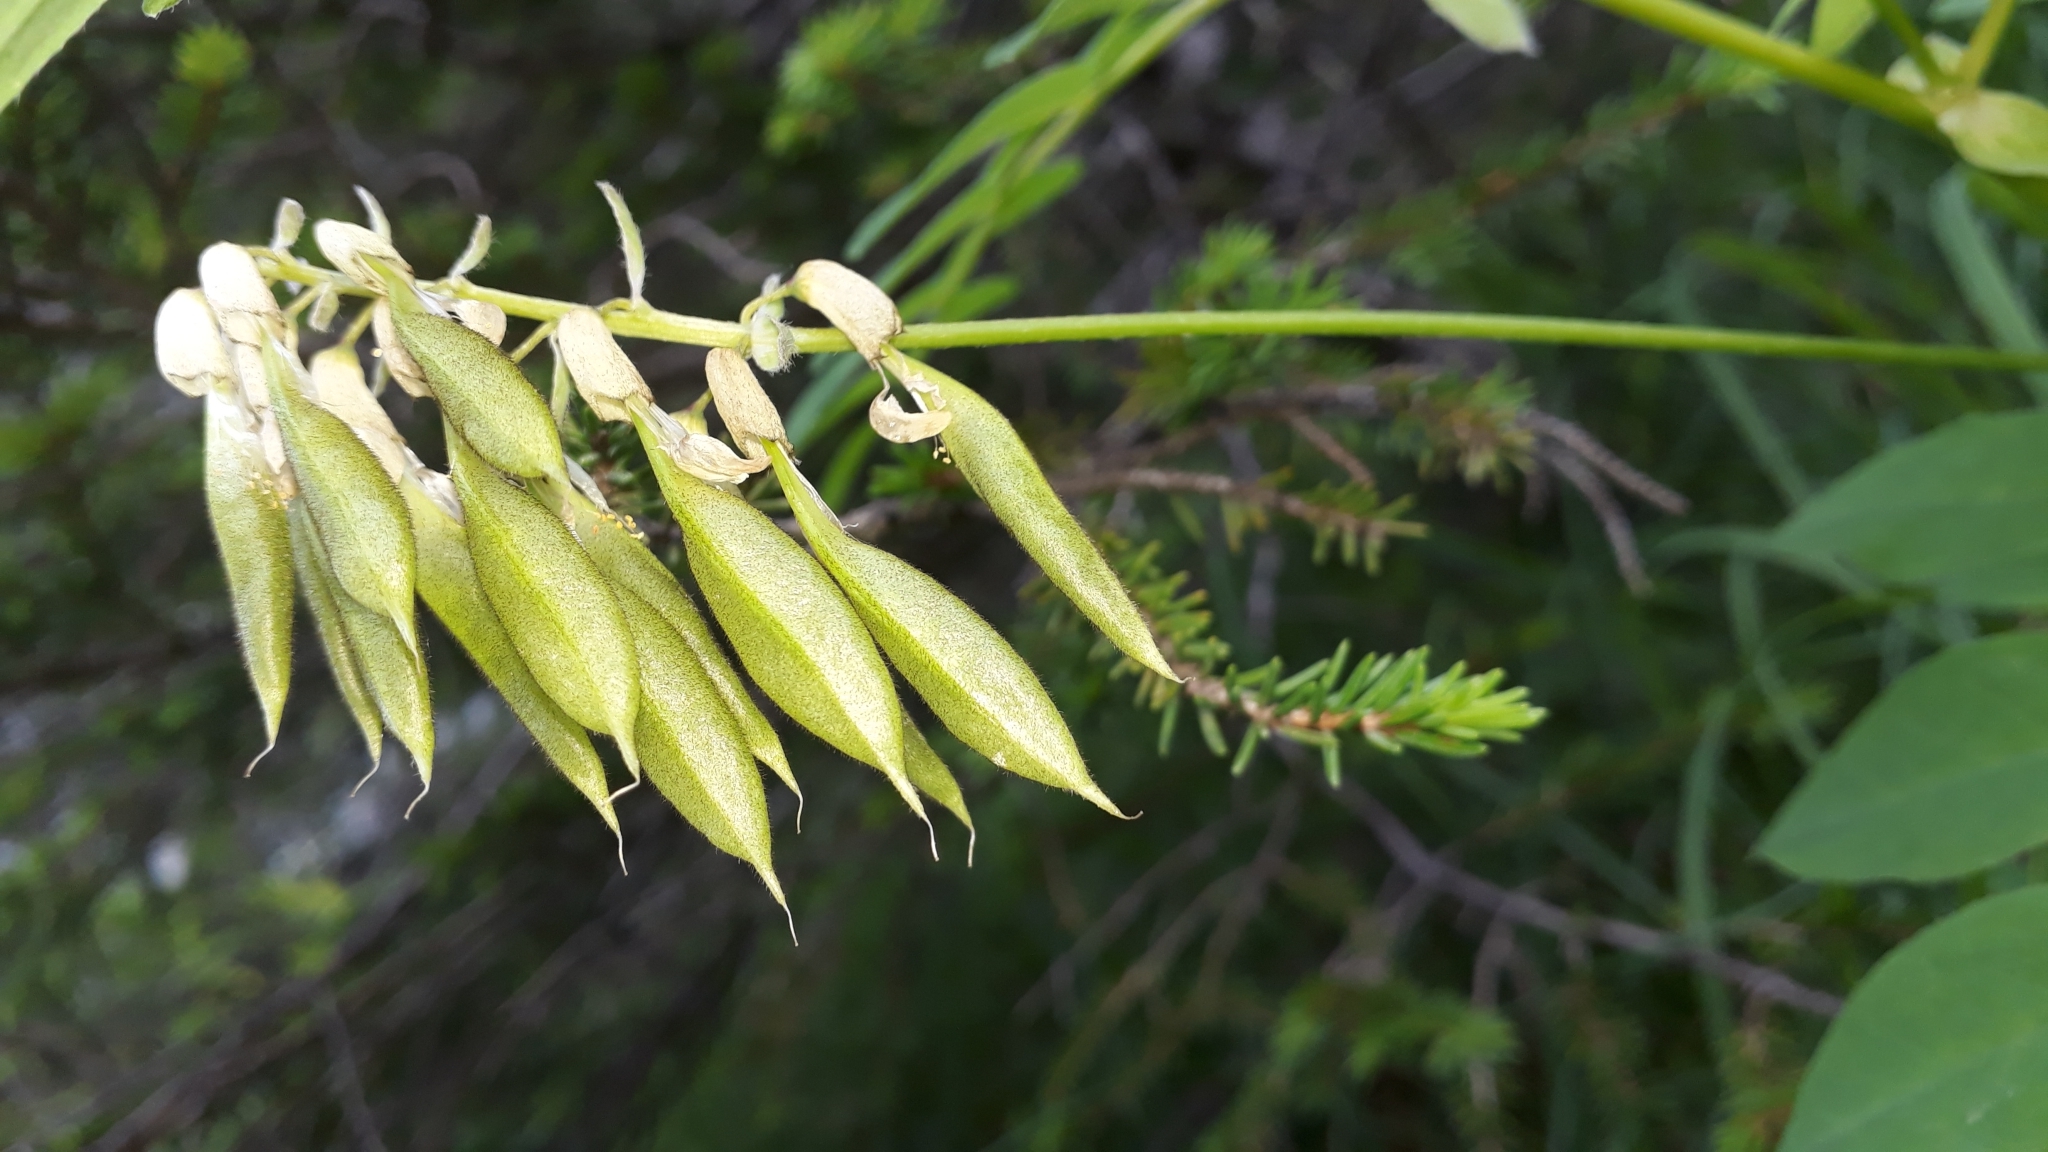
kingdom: Plantae
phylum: Tracheophyta
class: Magnoliopsida
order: Fabales
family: Fabaceae
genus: Astragalus
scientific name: Astragalus frigidus
